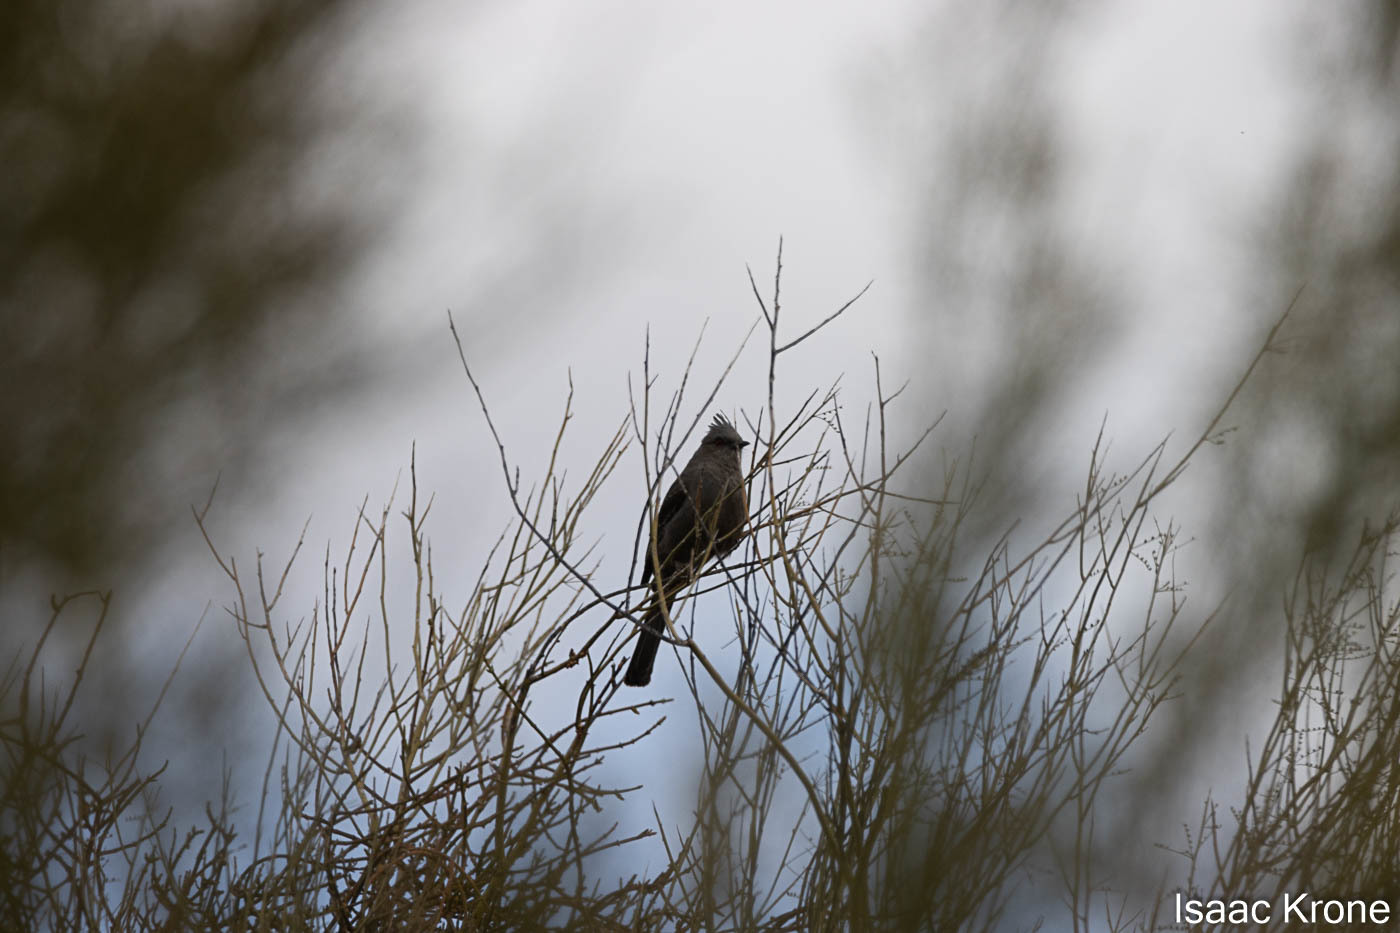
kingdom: Animalia
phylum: Chordata
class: Aves
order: Passeriformes
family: Ptilogonatidae
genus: Phainopepla
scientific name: Phainopepla nitens
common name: Phainopepla
